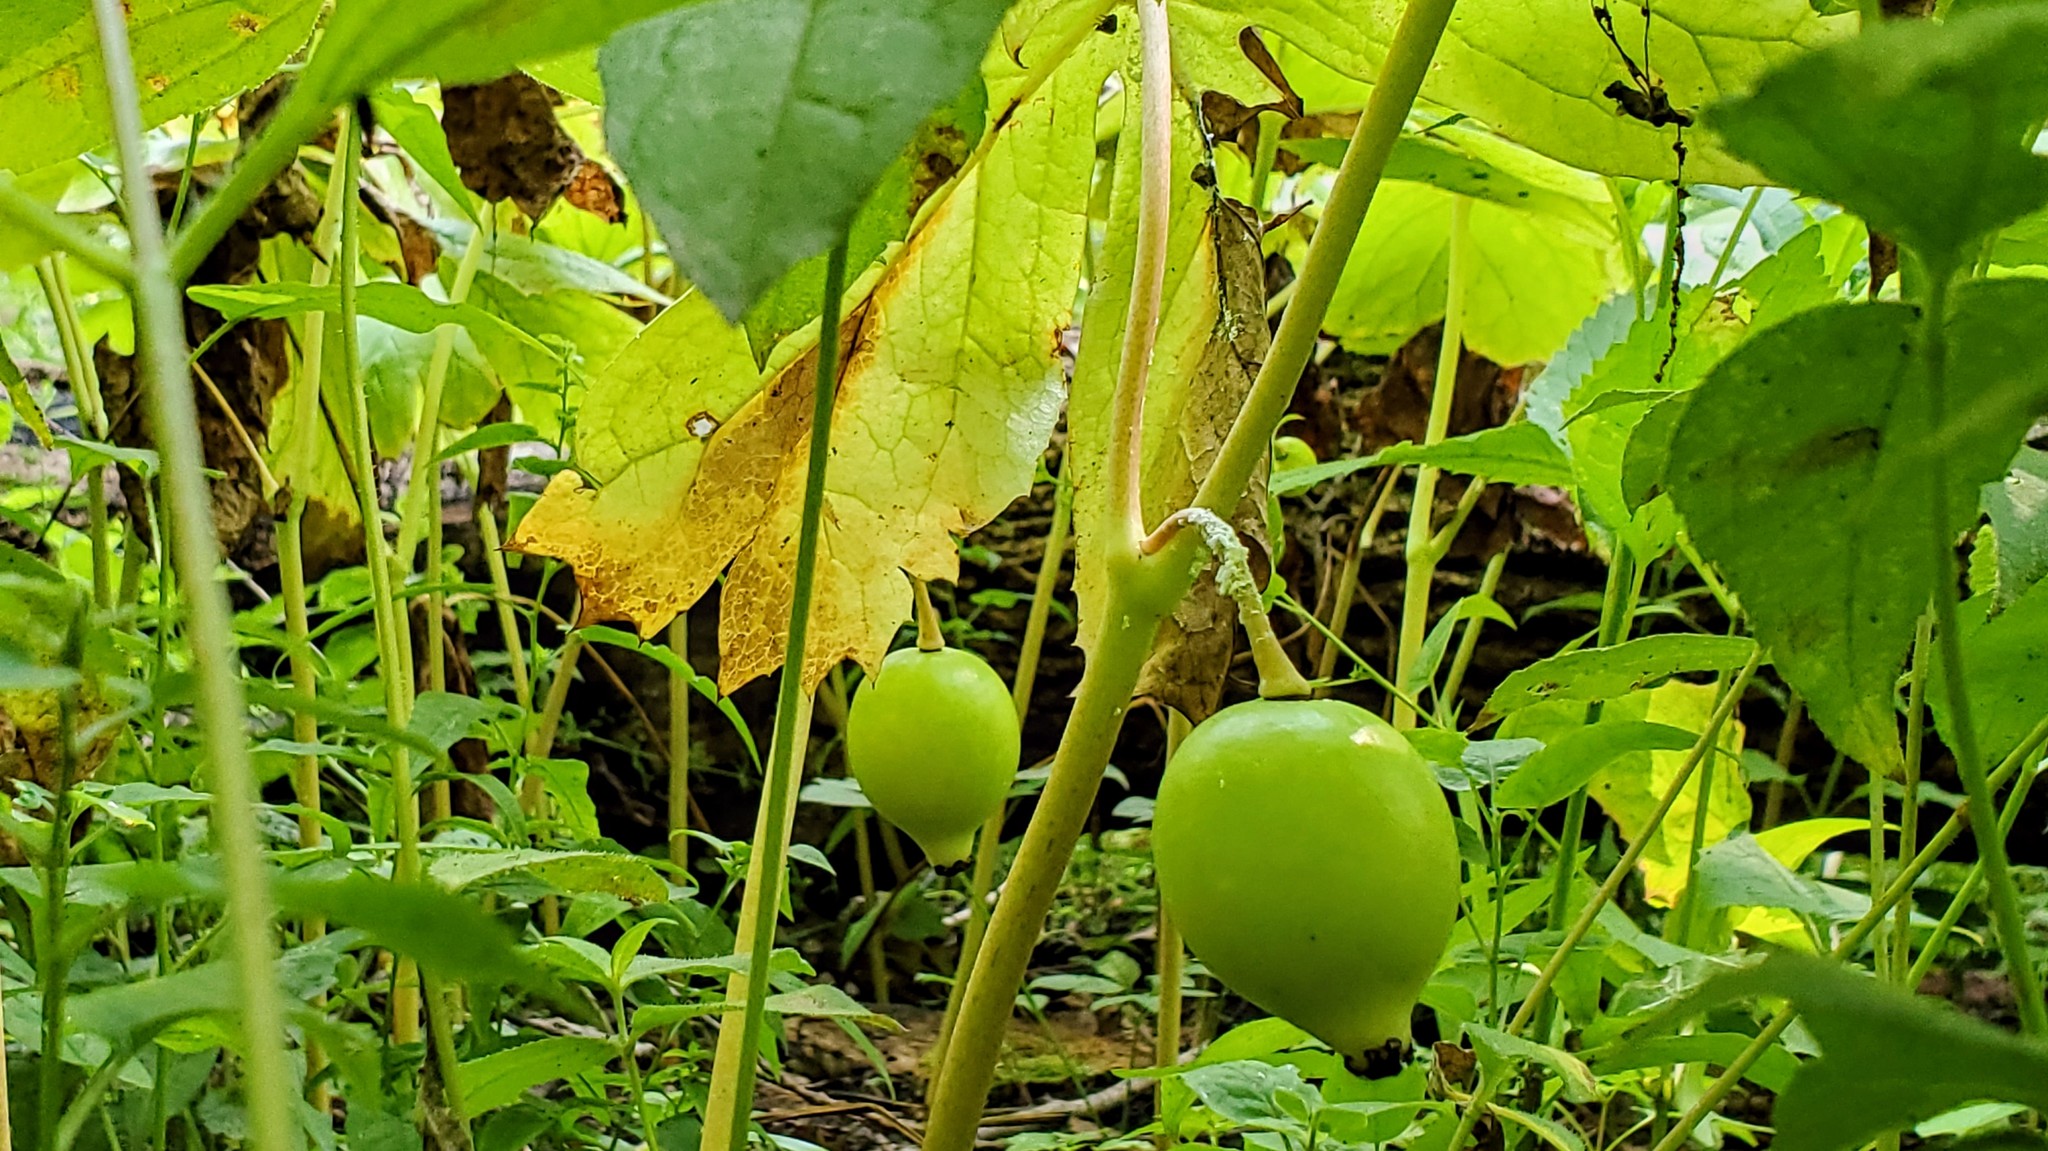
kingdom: Plantae
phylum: Tracheophyta
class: Magnoliopsida
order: Ranunculales
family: Berberidaceae
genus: Podophyllum
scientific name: Podophyllum peltatum
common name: Wild mandrake
